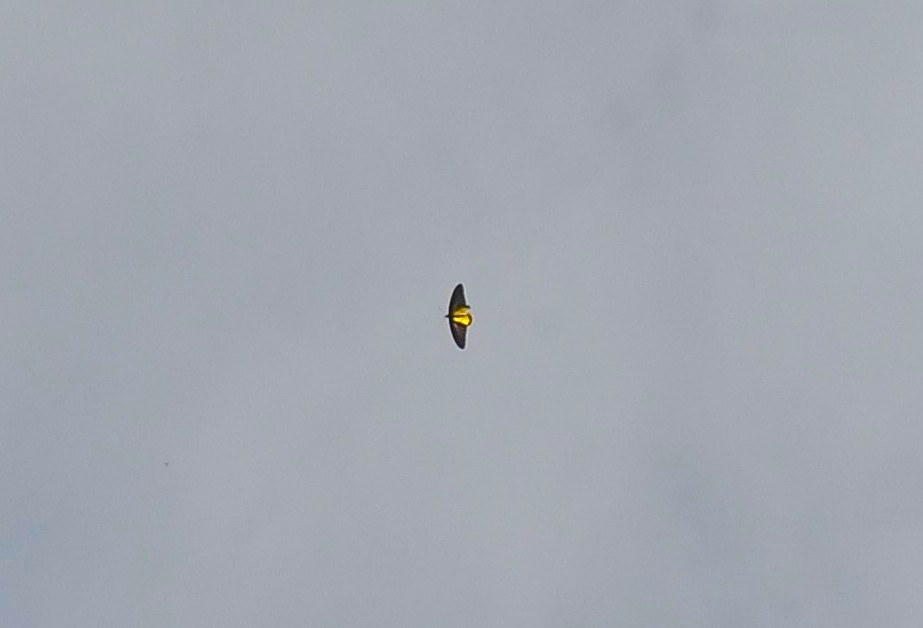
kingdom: Animalia
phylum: Arthropoda
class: Insecta
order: Lepidoptera
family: Papilionidae
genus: Troides
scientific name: Troides minos
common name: Malabar birdwing
